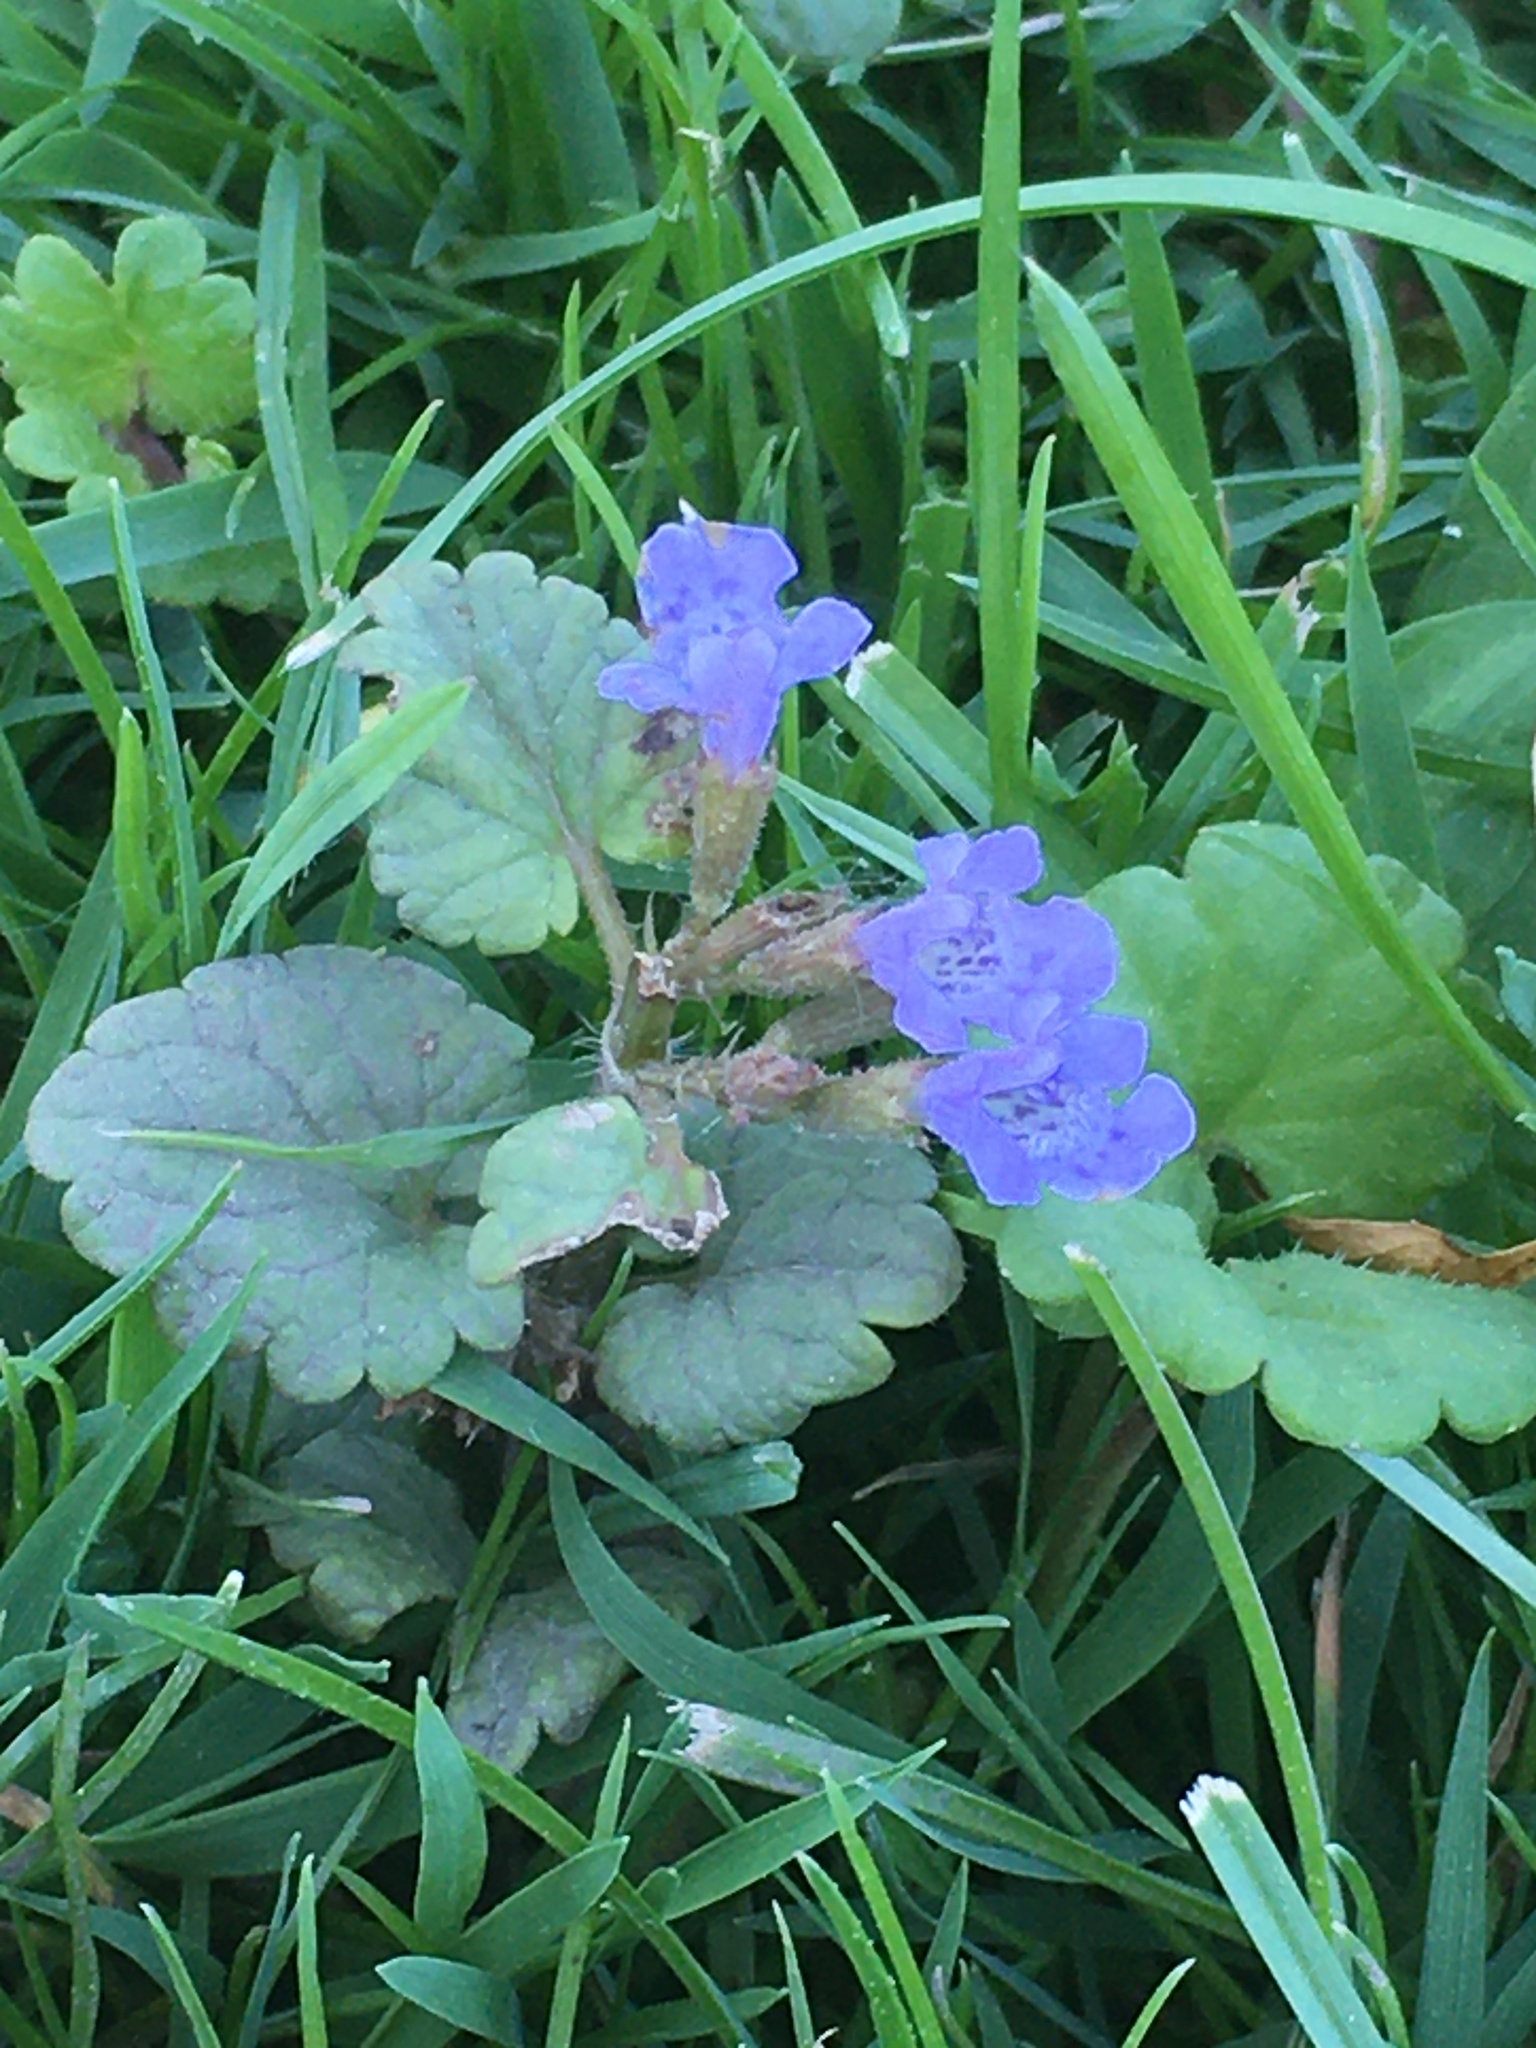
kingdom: Plantae
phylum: Tracheophyta
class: Magnoliopsida
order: Lamiales
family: Lamiaceae
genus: Glechoma
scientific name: Glechoma hederacea
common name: Ground ivy
